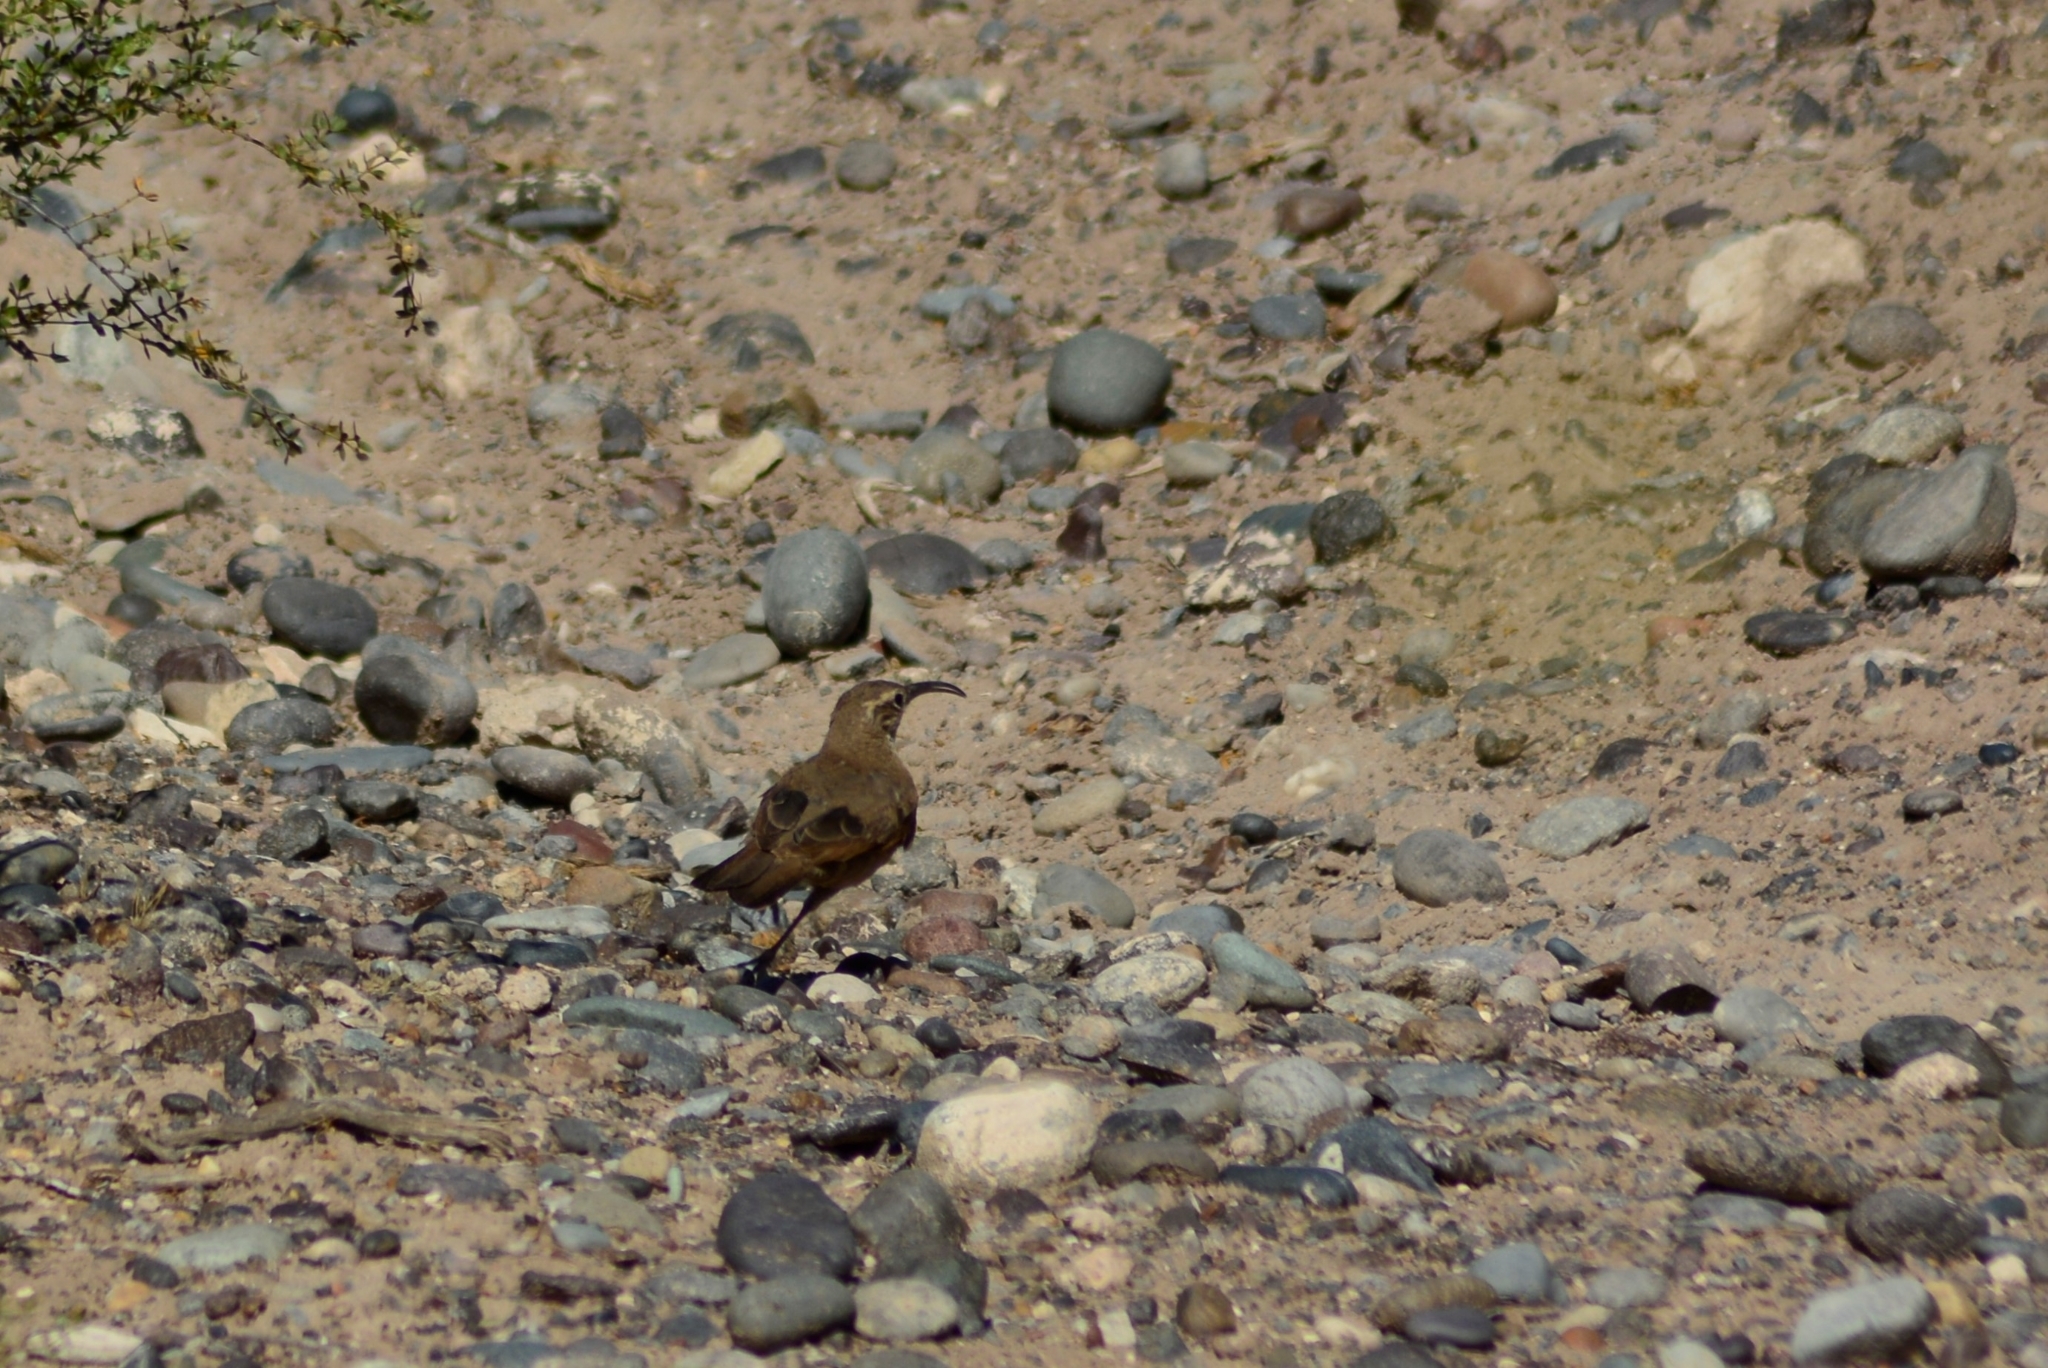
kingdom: Animalia
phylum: Chordata
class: Aves
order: Passeriformes
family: Furnariidae
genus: Upucerthia
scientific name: Upucerthia dumetaria
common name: Scale-throated earthcreeper
